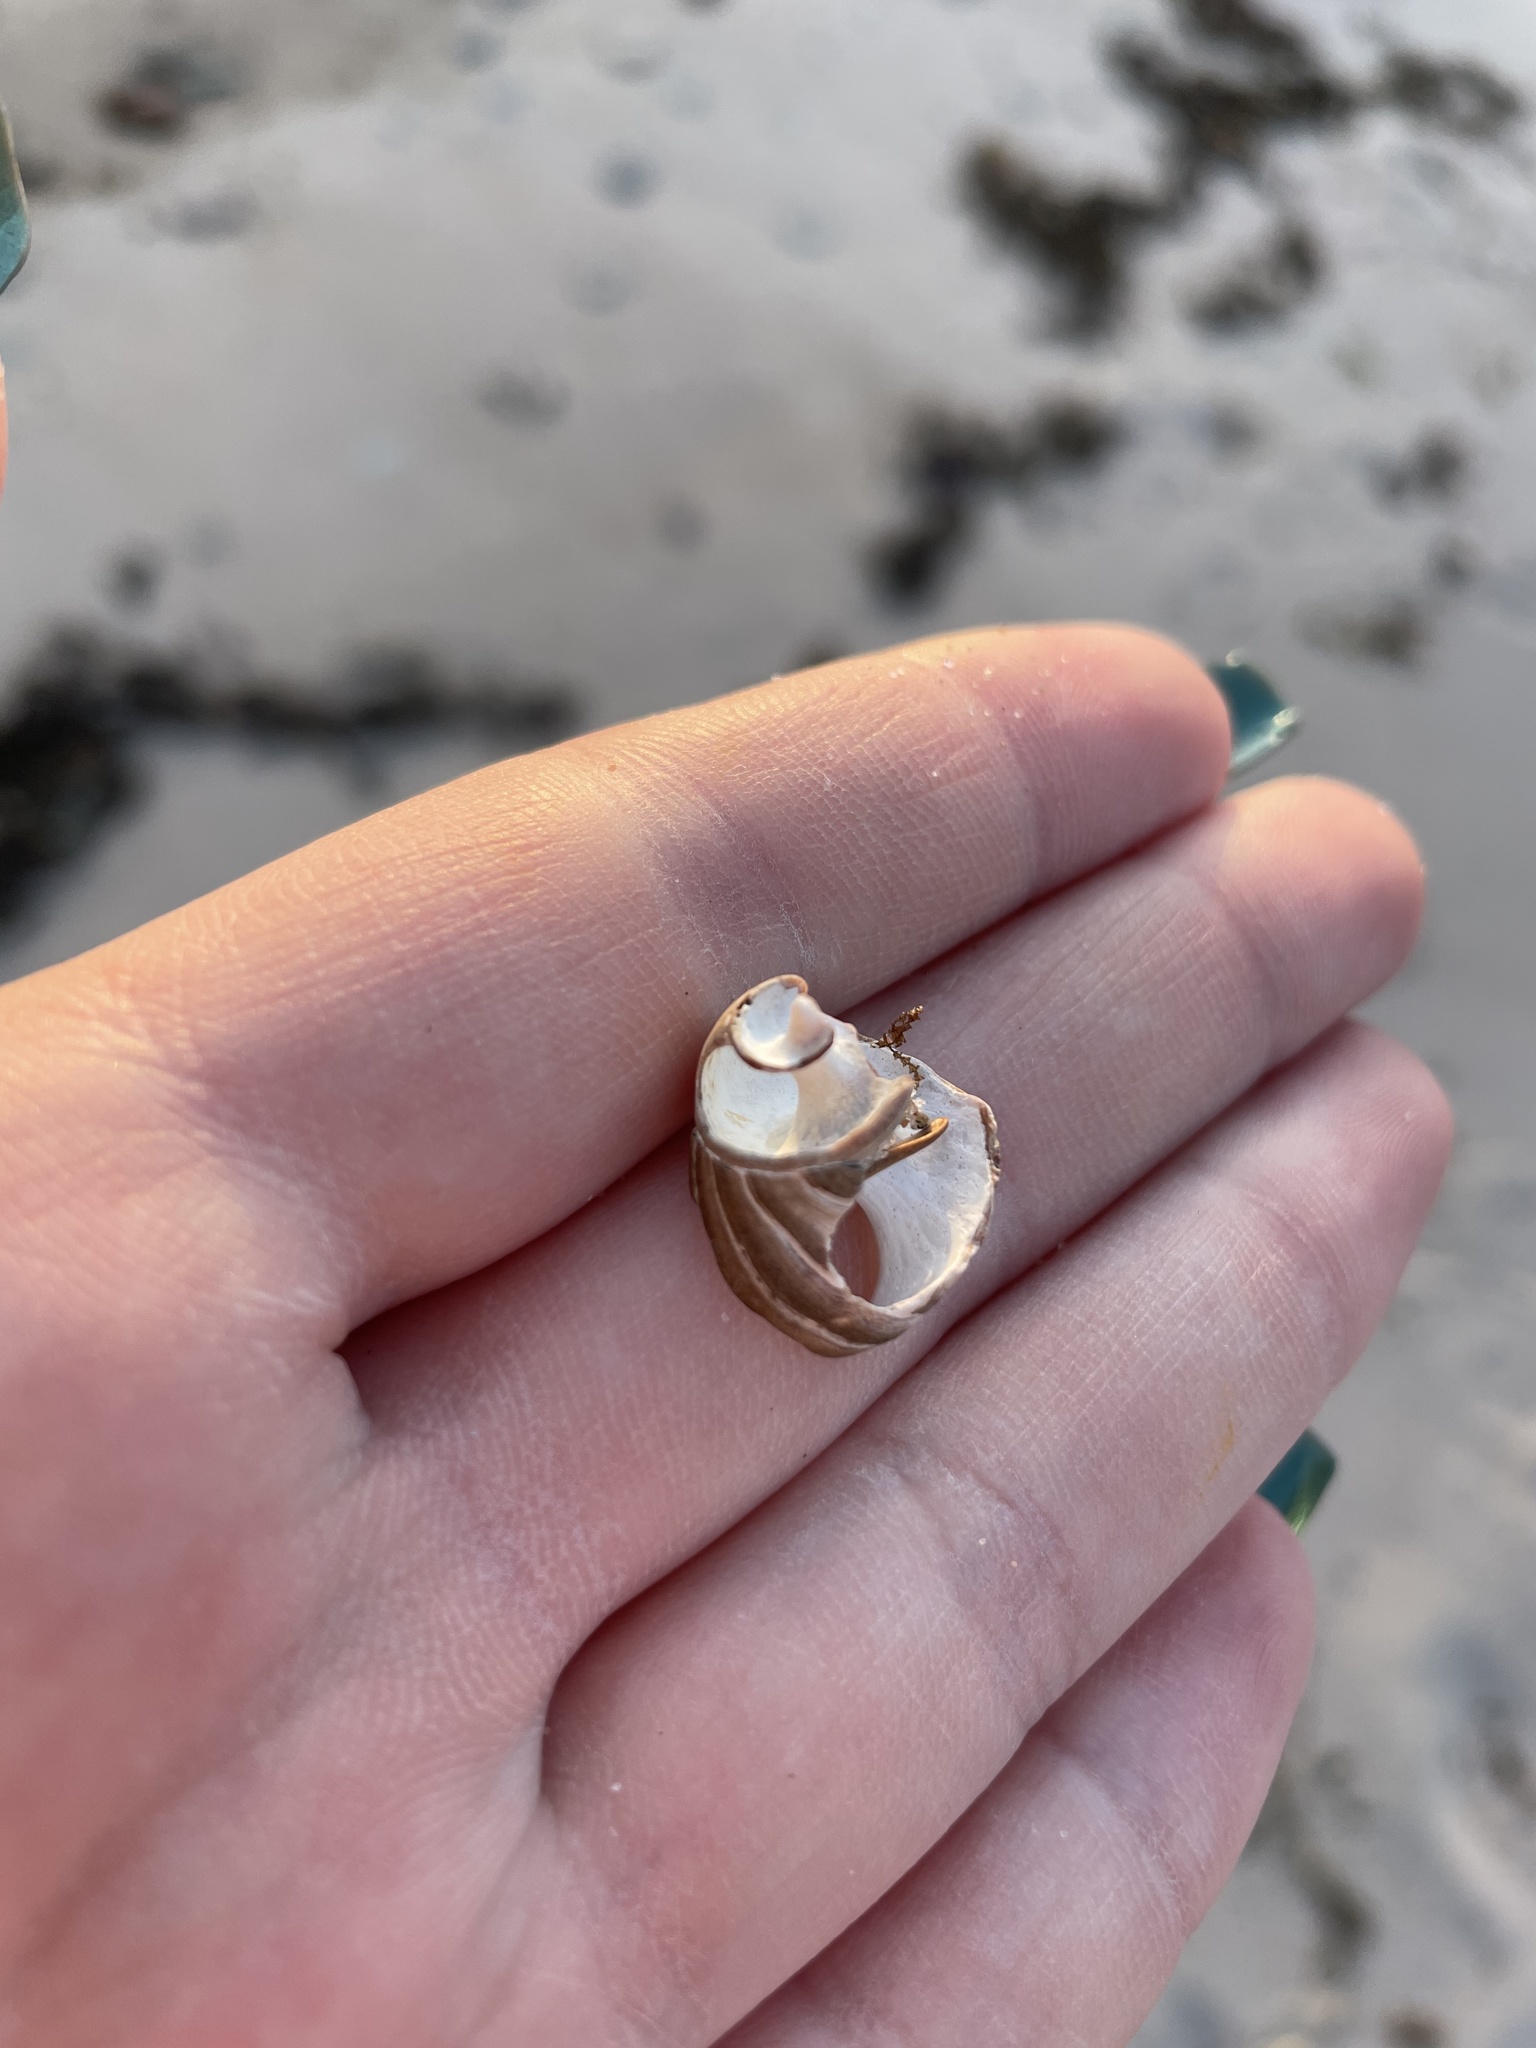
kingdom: Animalia
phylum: Mollusca
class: Gastropoda
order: Littorinimorpha
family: Littorinidae
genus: Littorina
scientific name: Littorina littorea
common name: Common periwinkle
